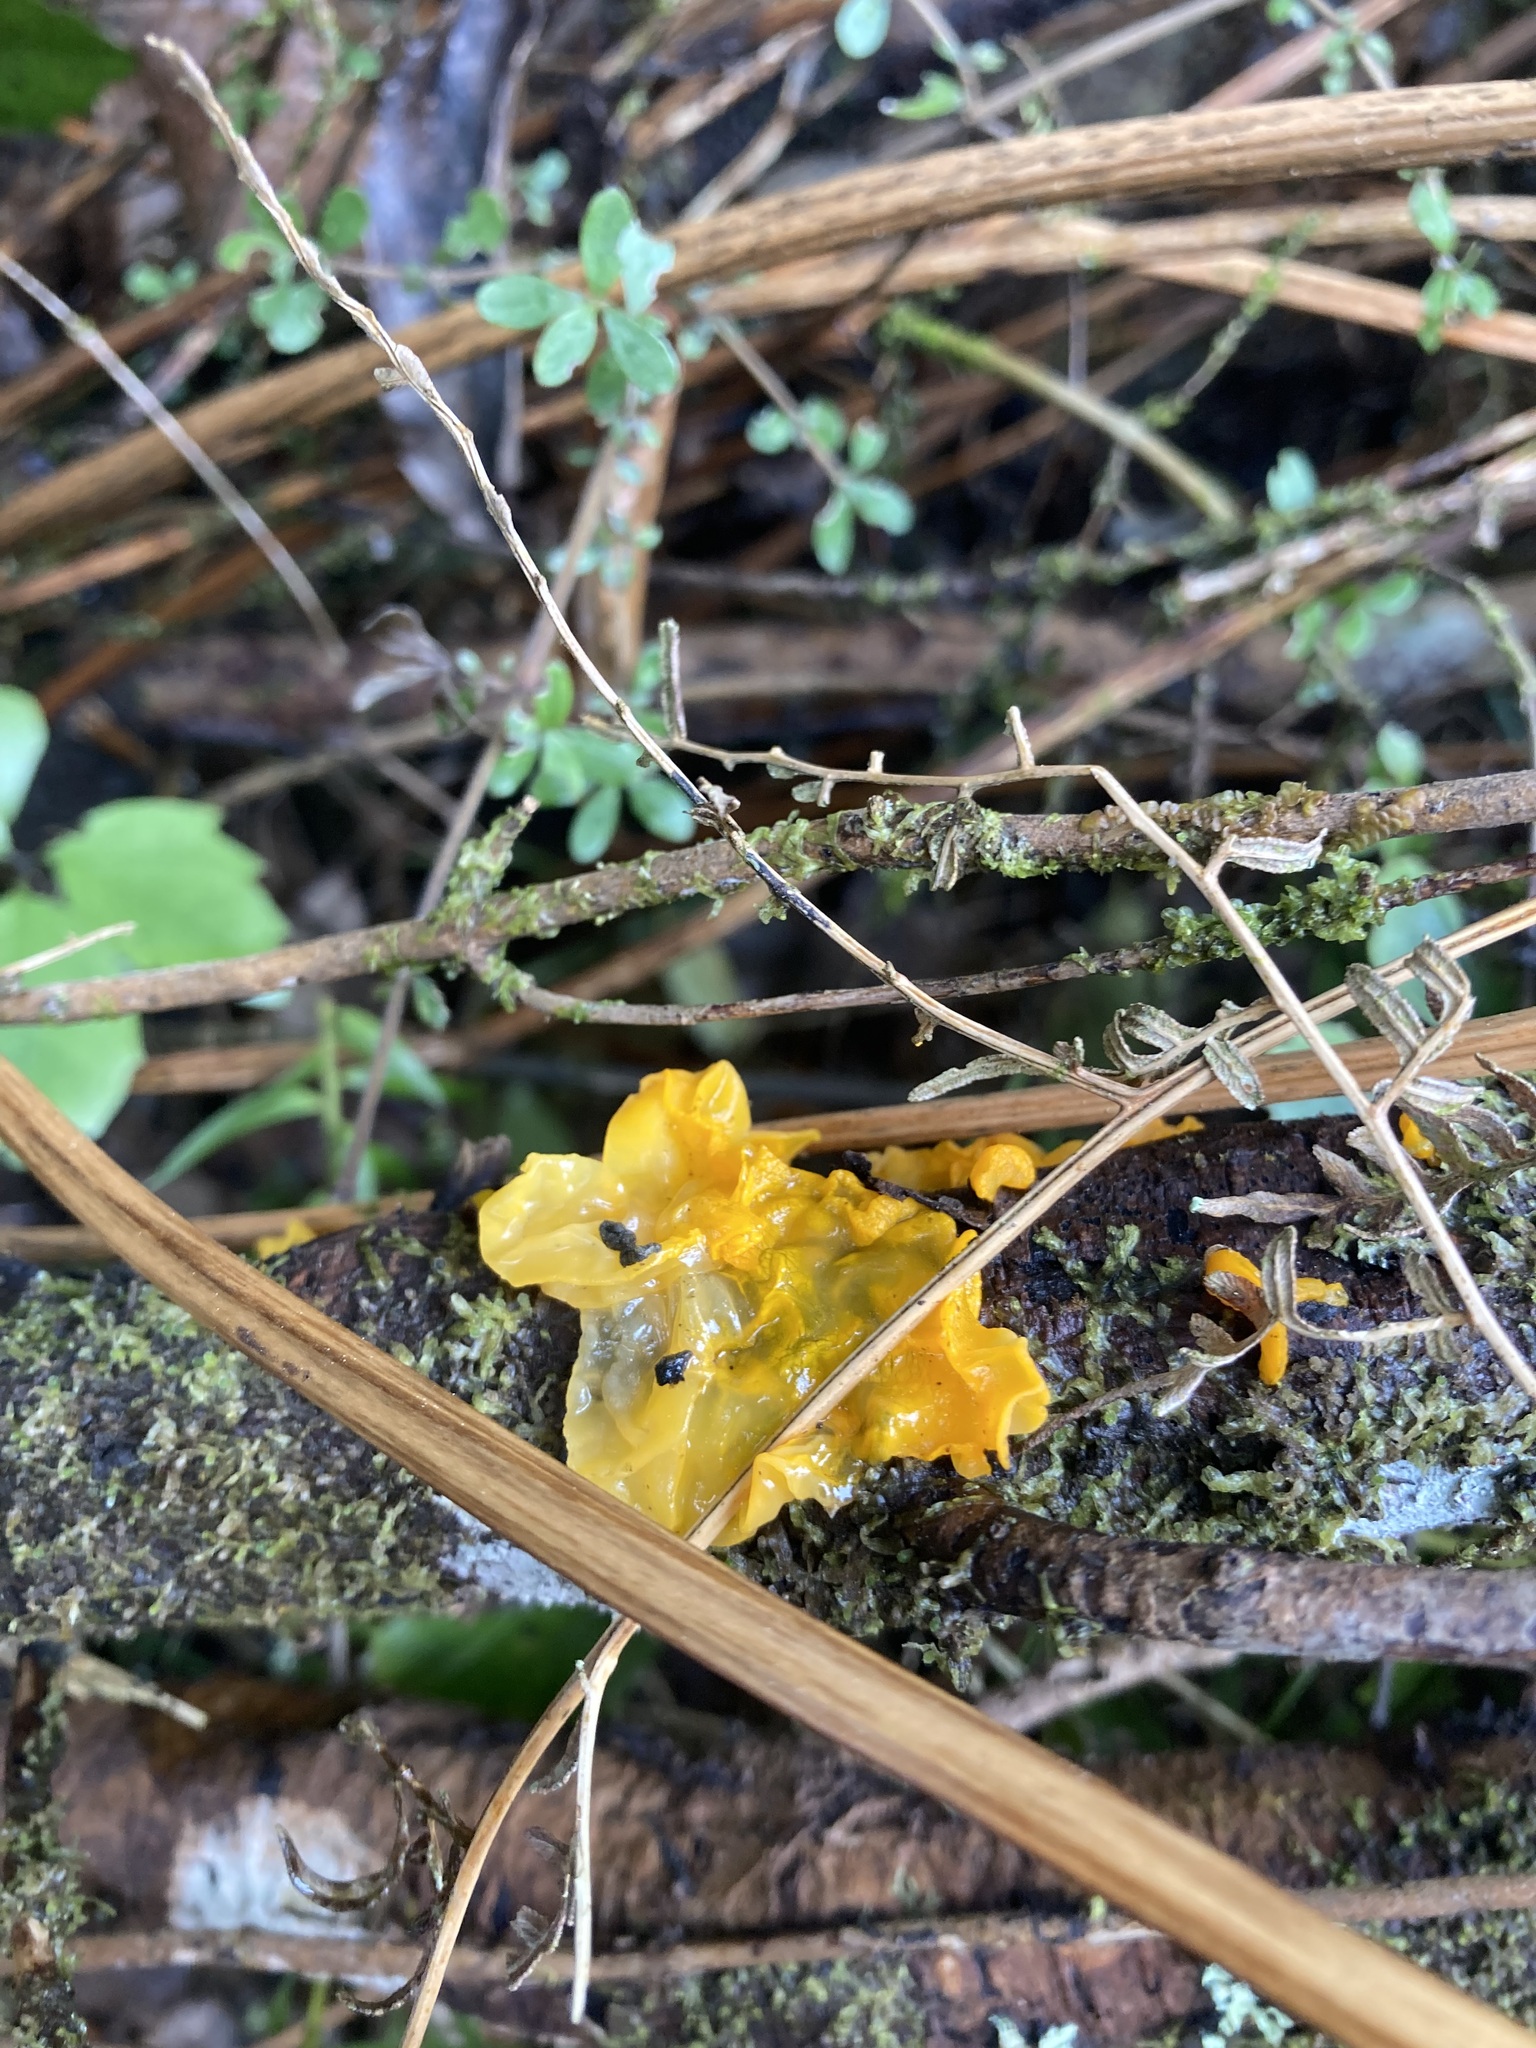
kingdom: Fungi
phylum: Basidiomycota
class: Tremellomycetes
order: Tremellales
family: Tremellaceae
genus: Tremella
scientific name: Tremella mesenterica
